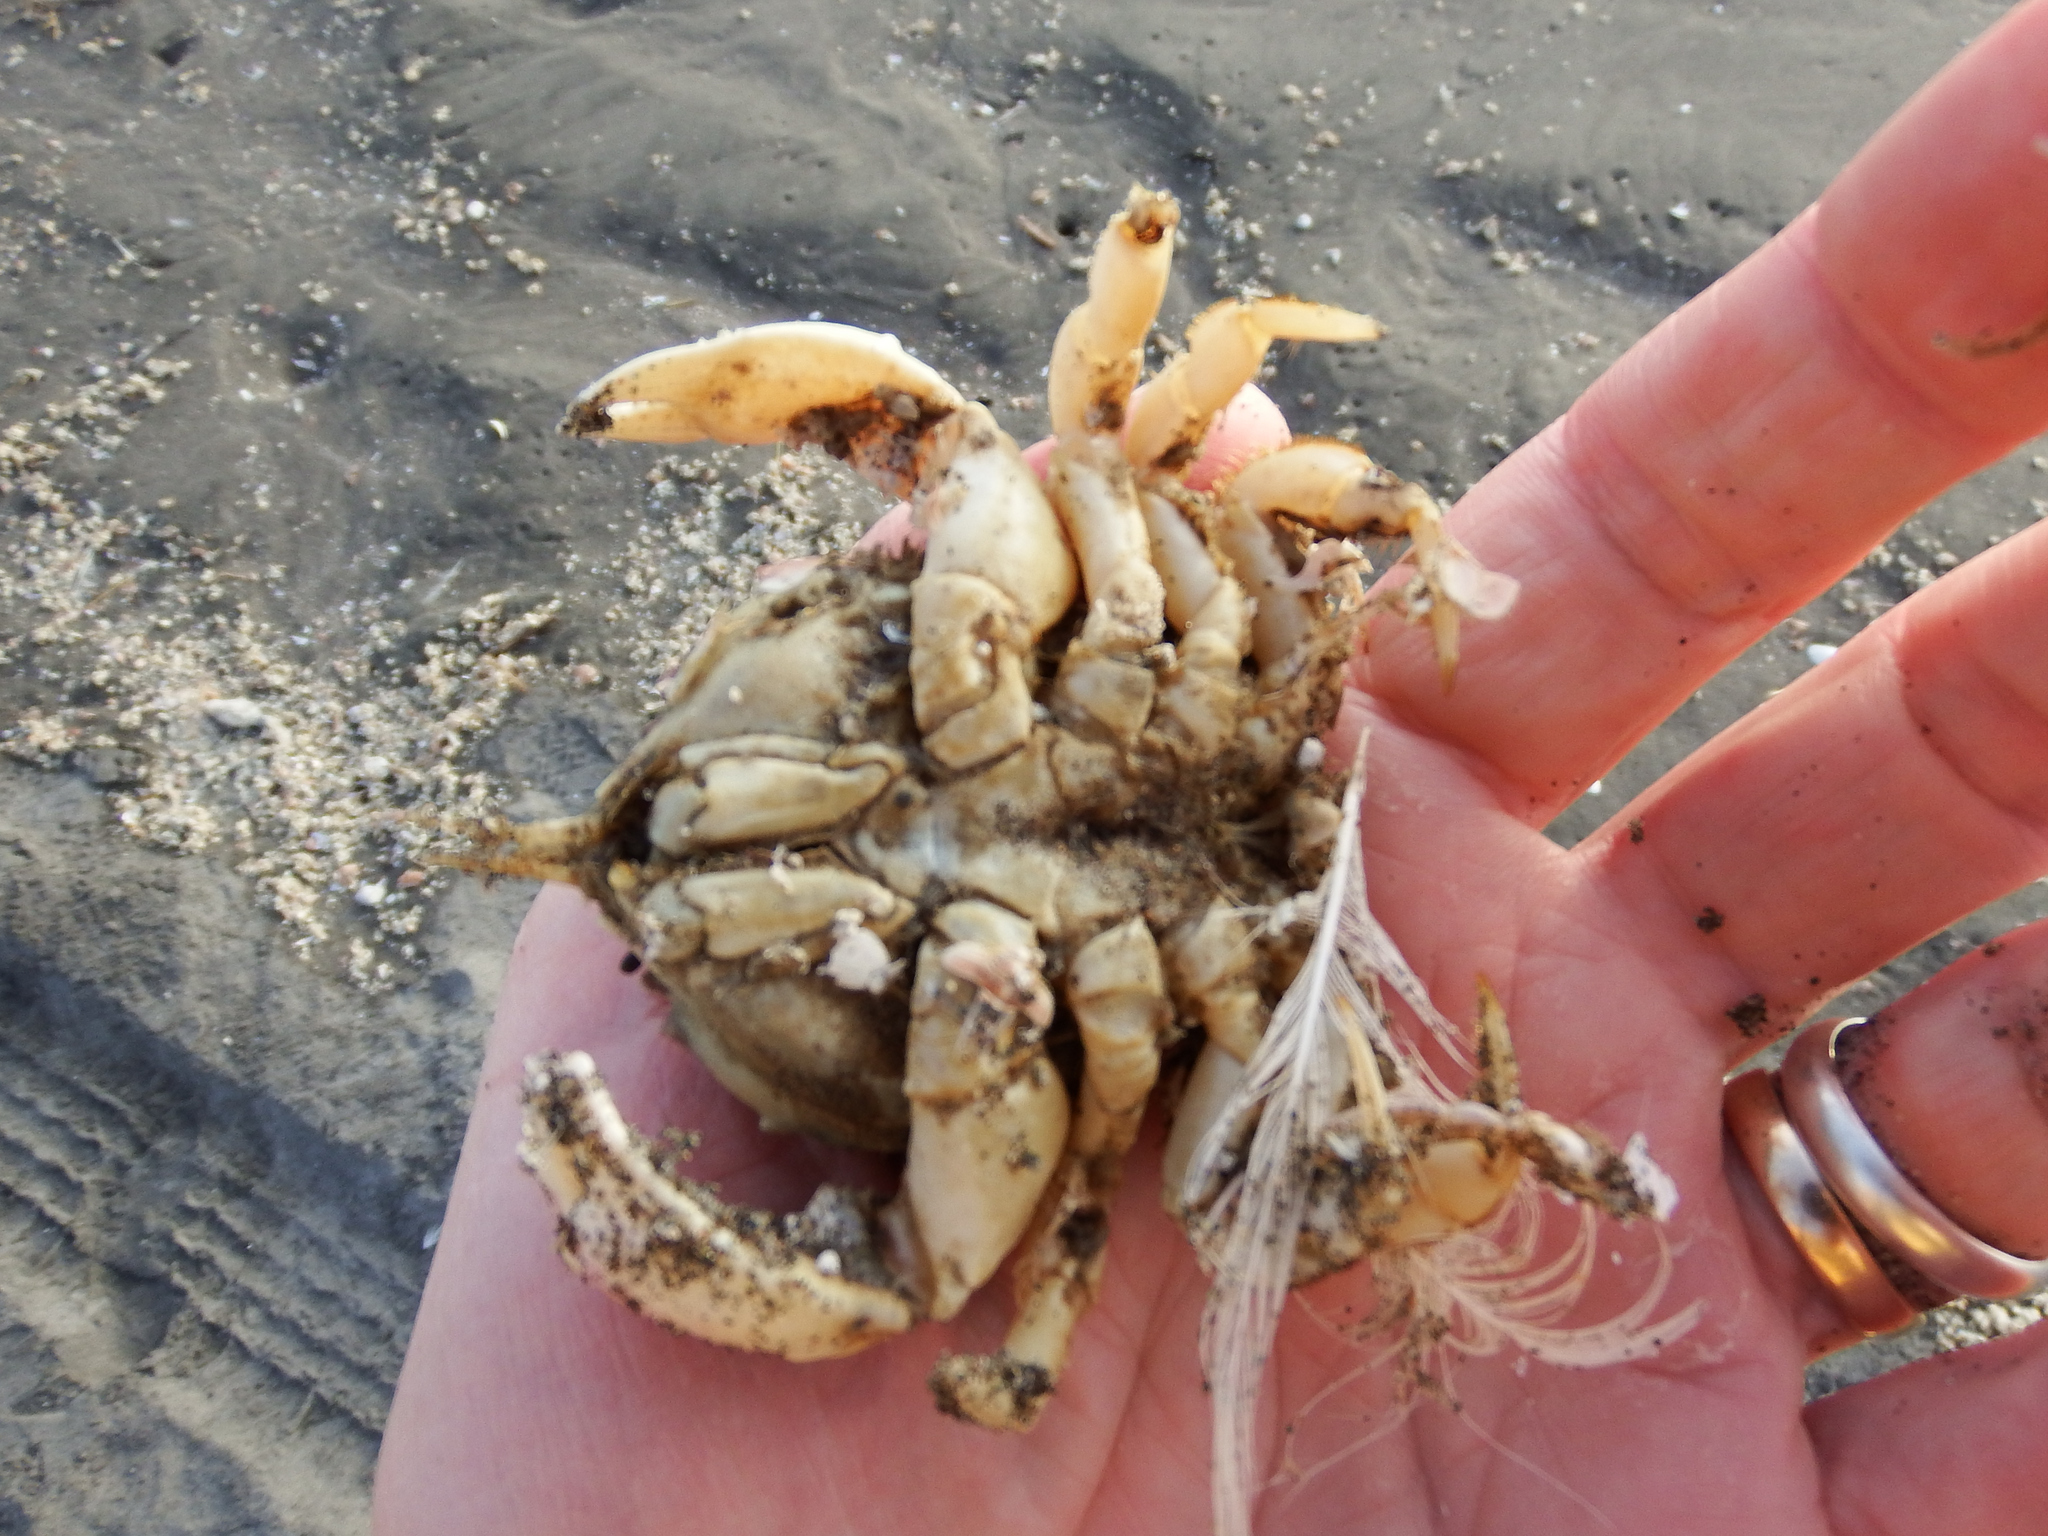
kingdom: Animalia
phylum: Arthropoda
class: Malacostraca
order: Decapoda
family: Atelecyclidae
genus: Pseudocorystes
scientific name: Pseudocorystes sicarius
